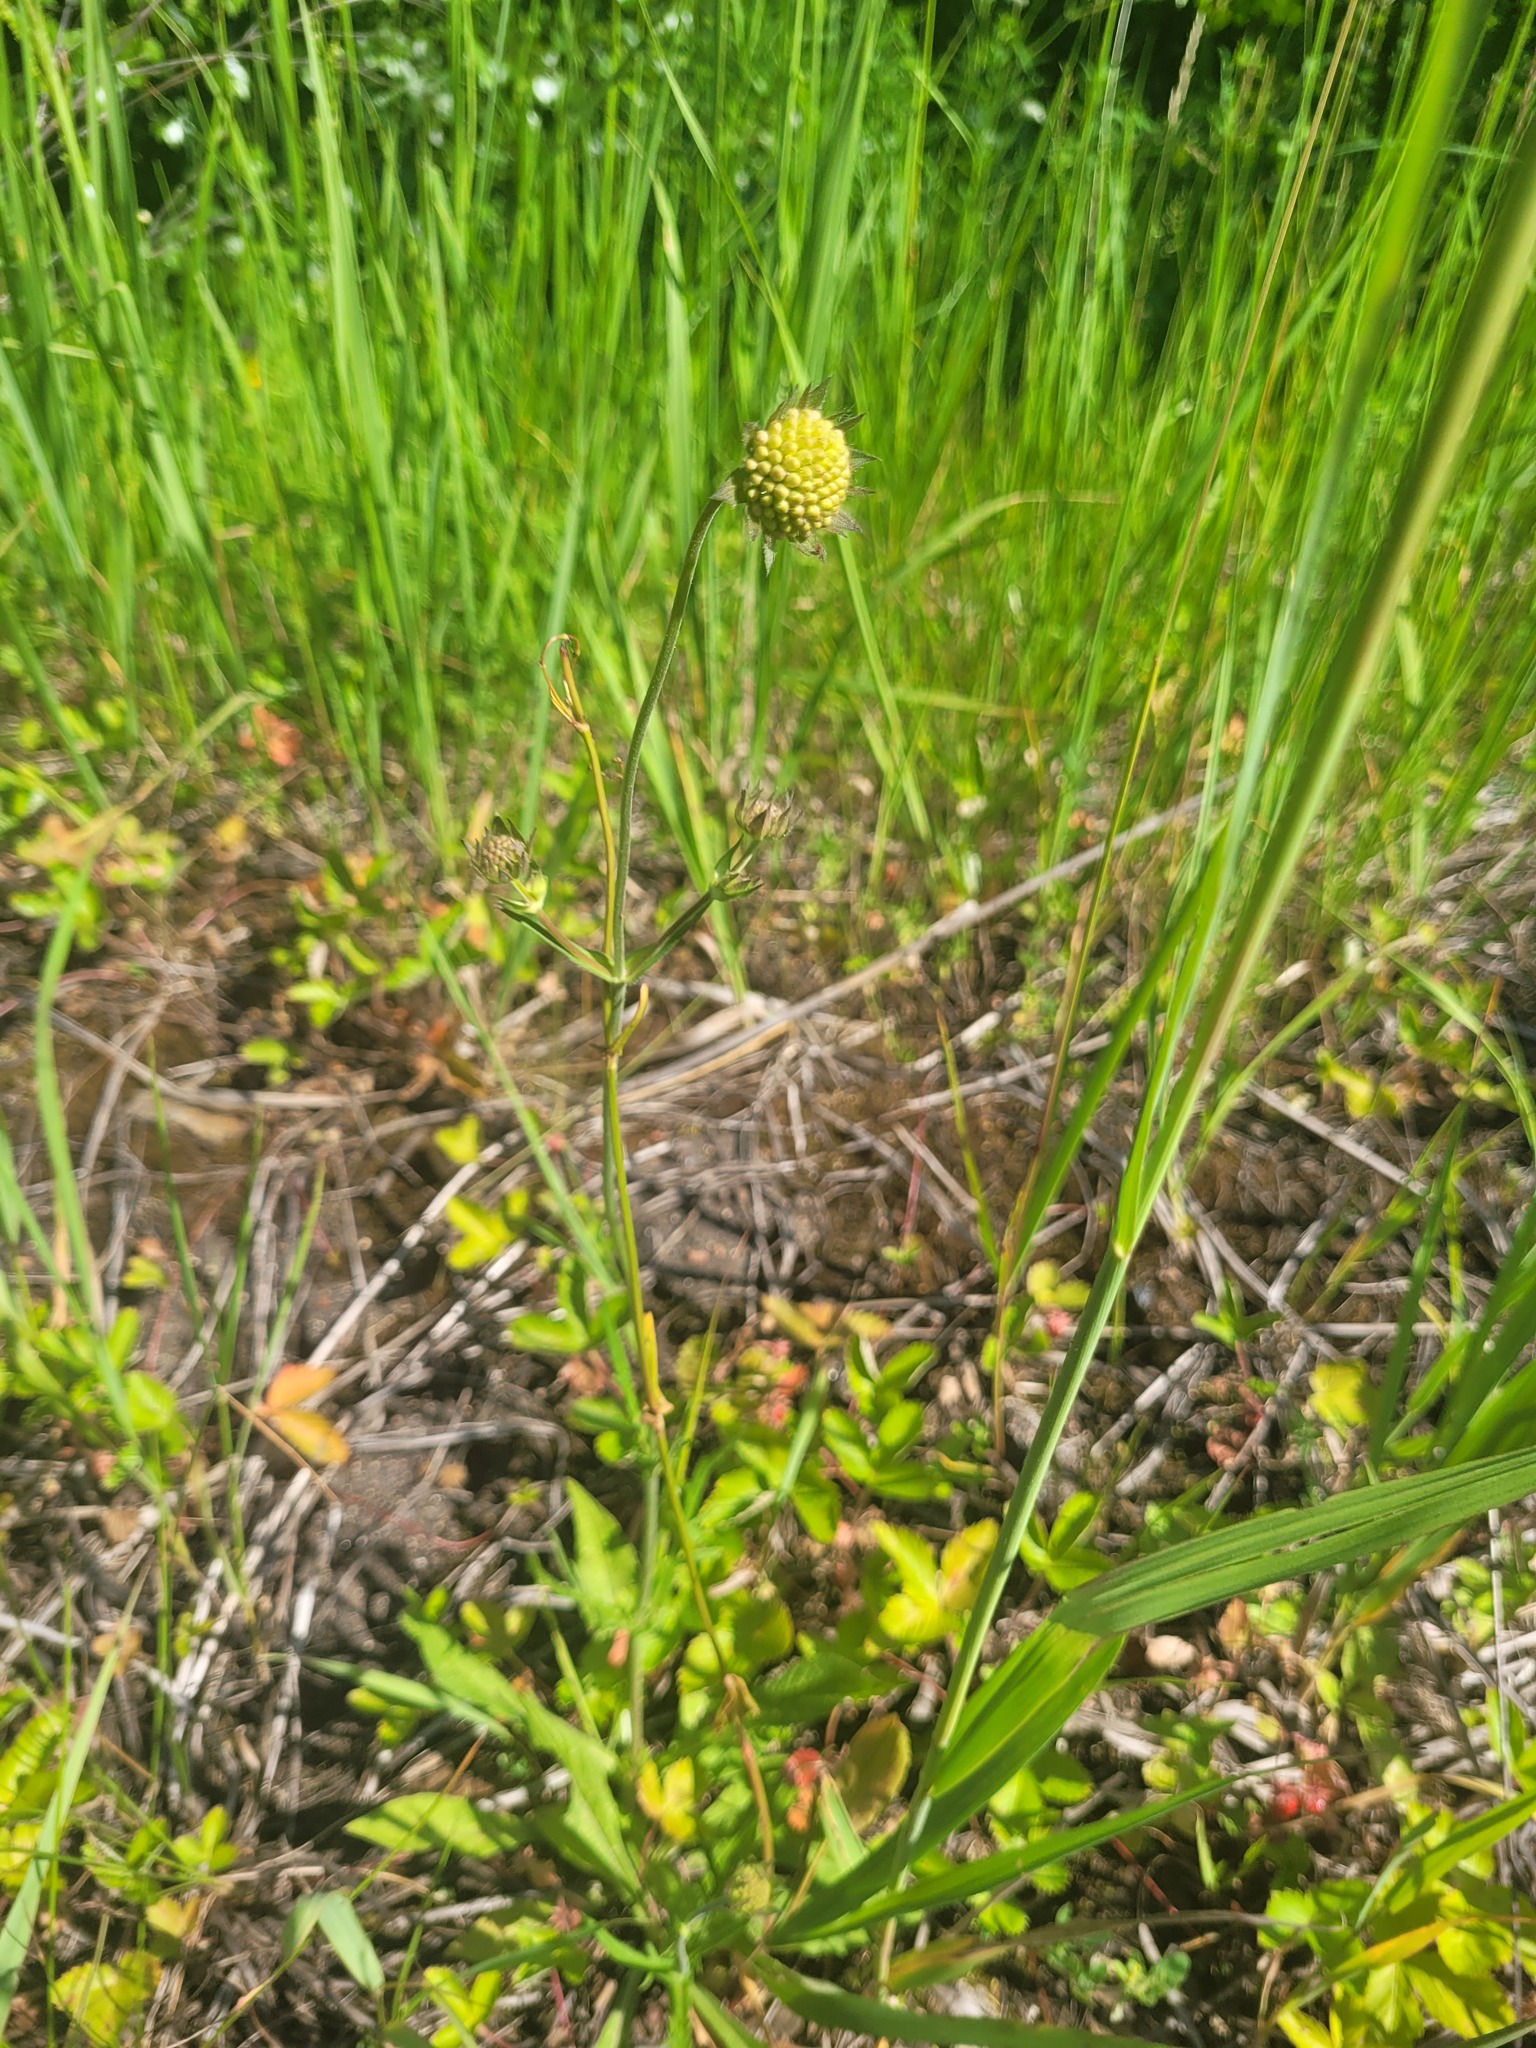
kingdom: Plantae
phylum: Tracheophyta
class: Magnoliopsida
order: Dipsacales
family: Caprifoliaceae
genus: Knautia
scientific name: Knautia arvensis
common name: Field scabiosa
